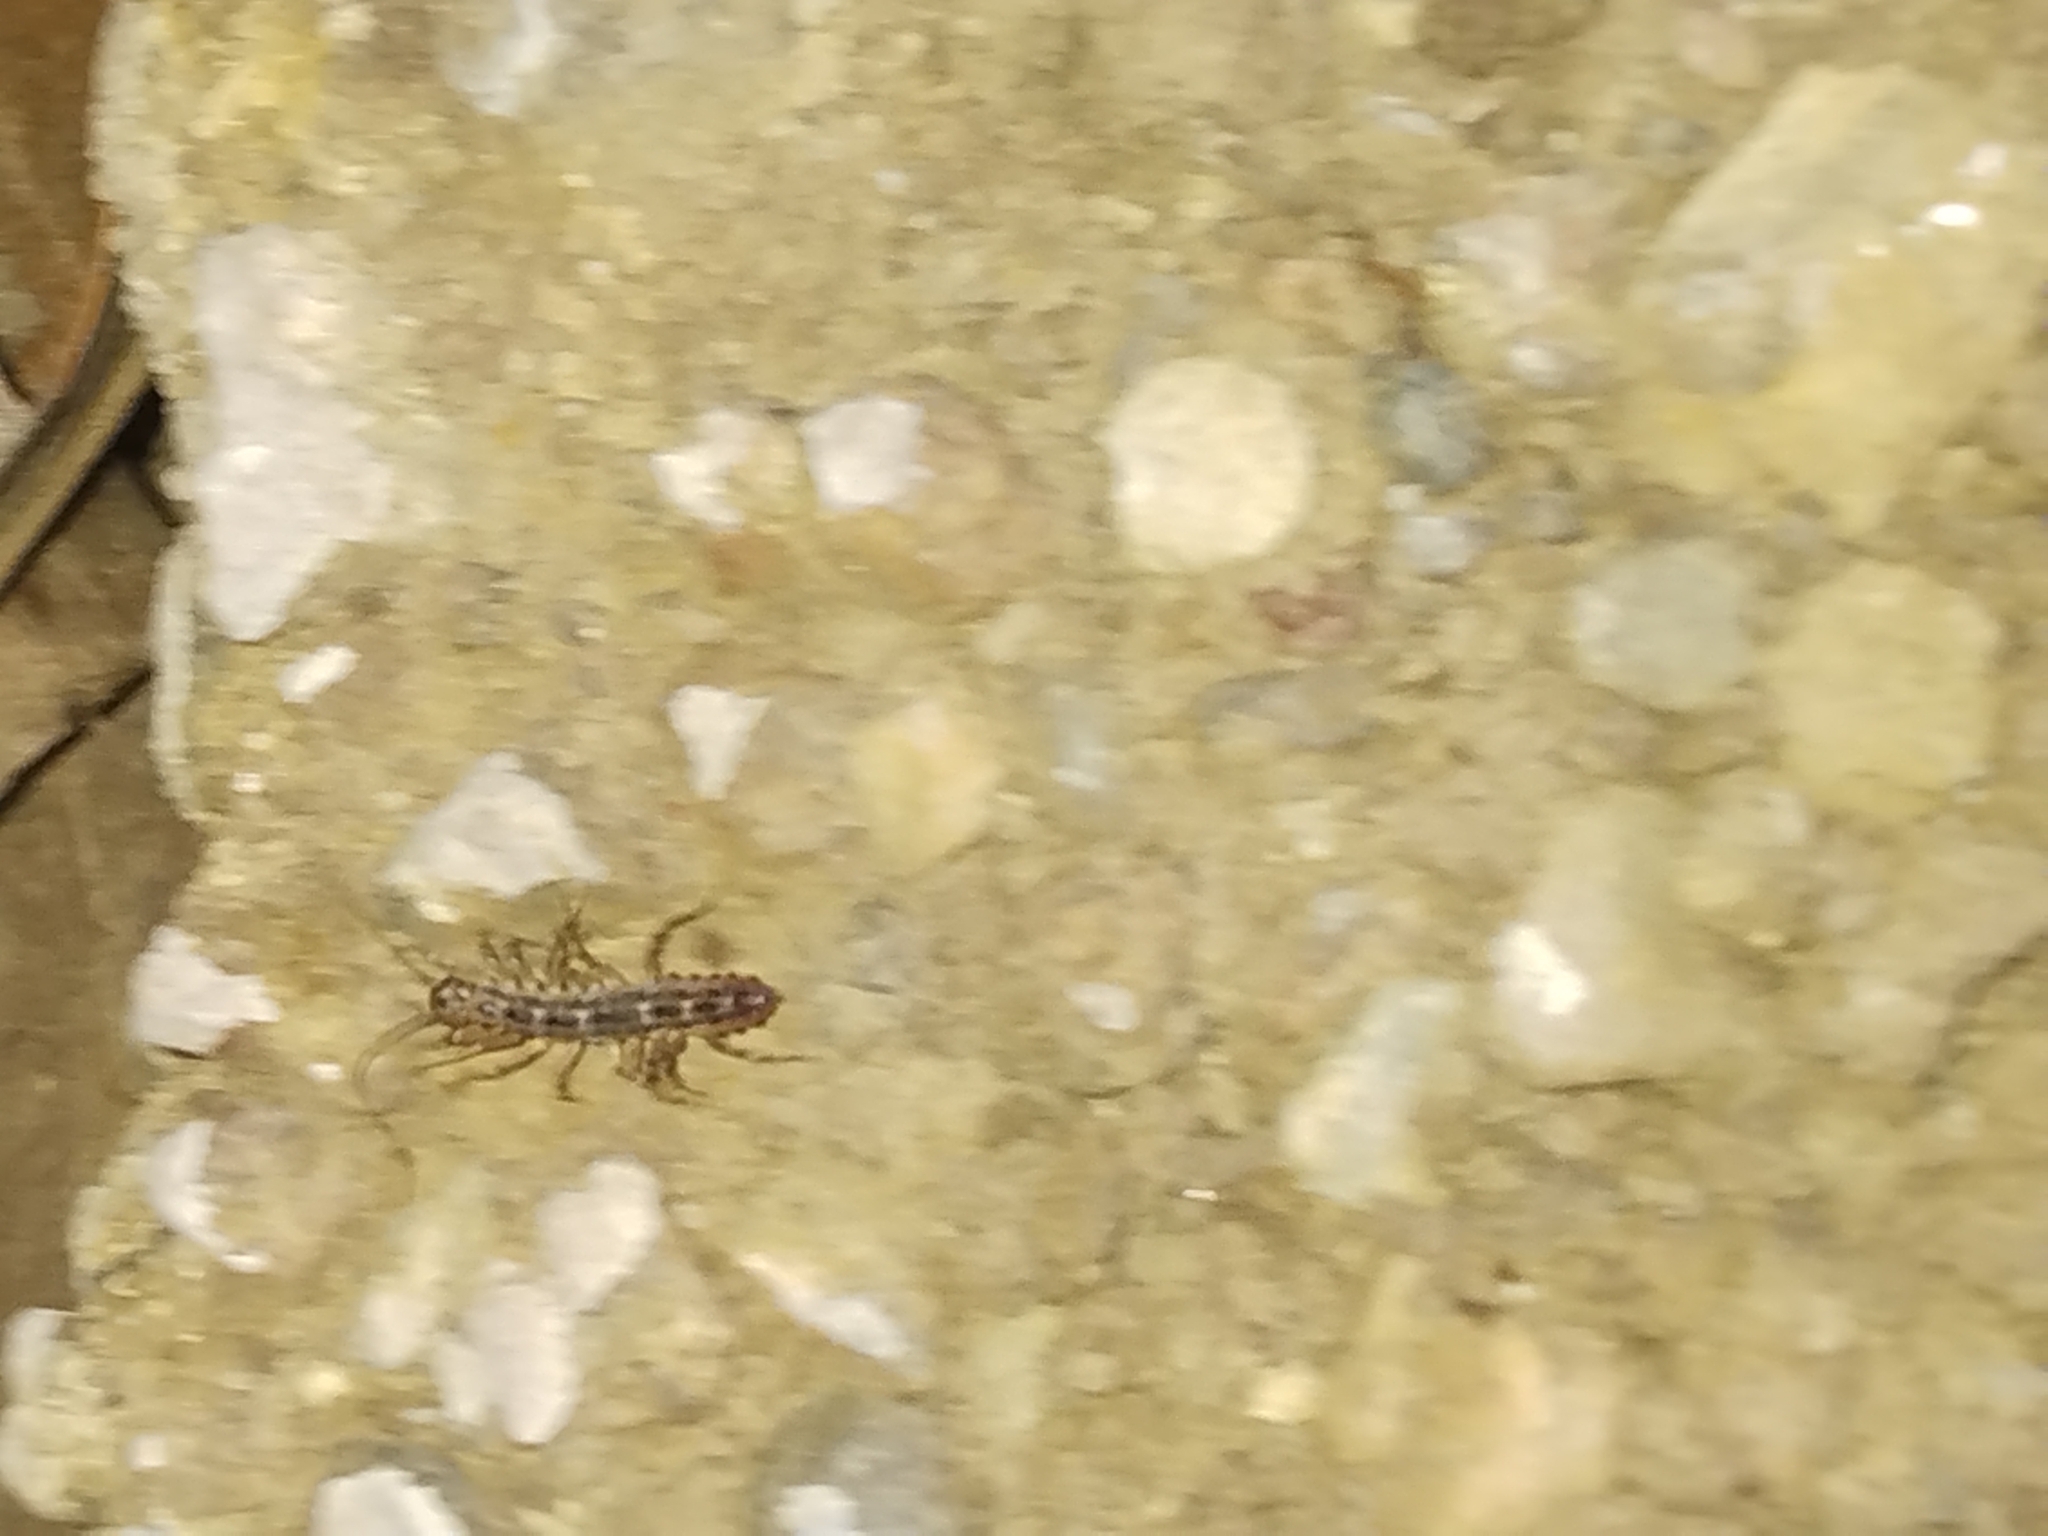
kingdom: Animalia
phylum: Arthropoda
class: Chilopoda
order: Scutigeromorpha
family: Scutigeridae
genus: Thereuonema
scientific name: Thereuonema tuberculata
